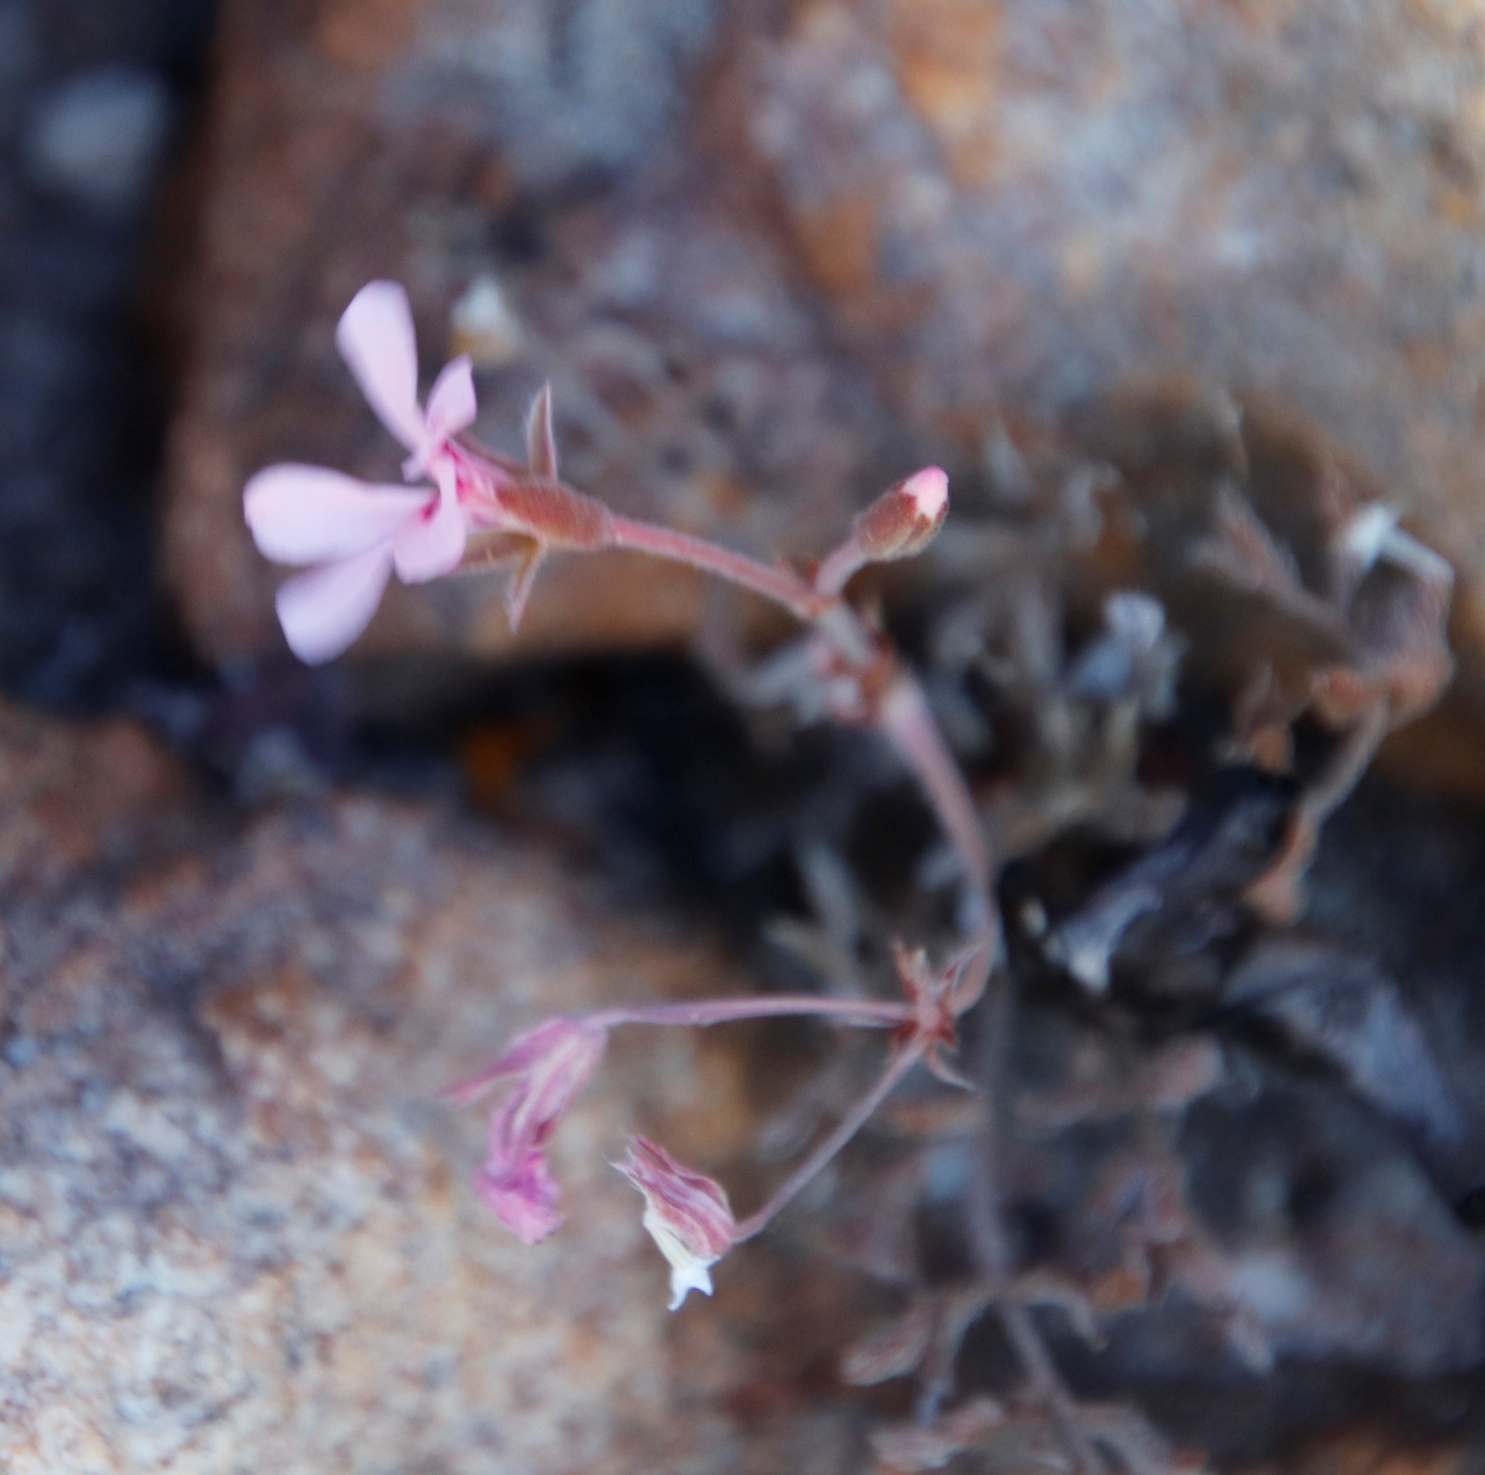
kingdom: Plantae
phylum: Tracheophyta
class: Magnoliopsida
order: Geraniales
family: Geraniaceae
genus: Pelargonium
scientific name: Pelargonium pinnatum
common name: Pinnated pelargonium
